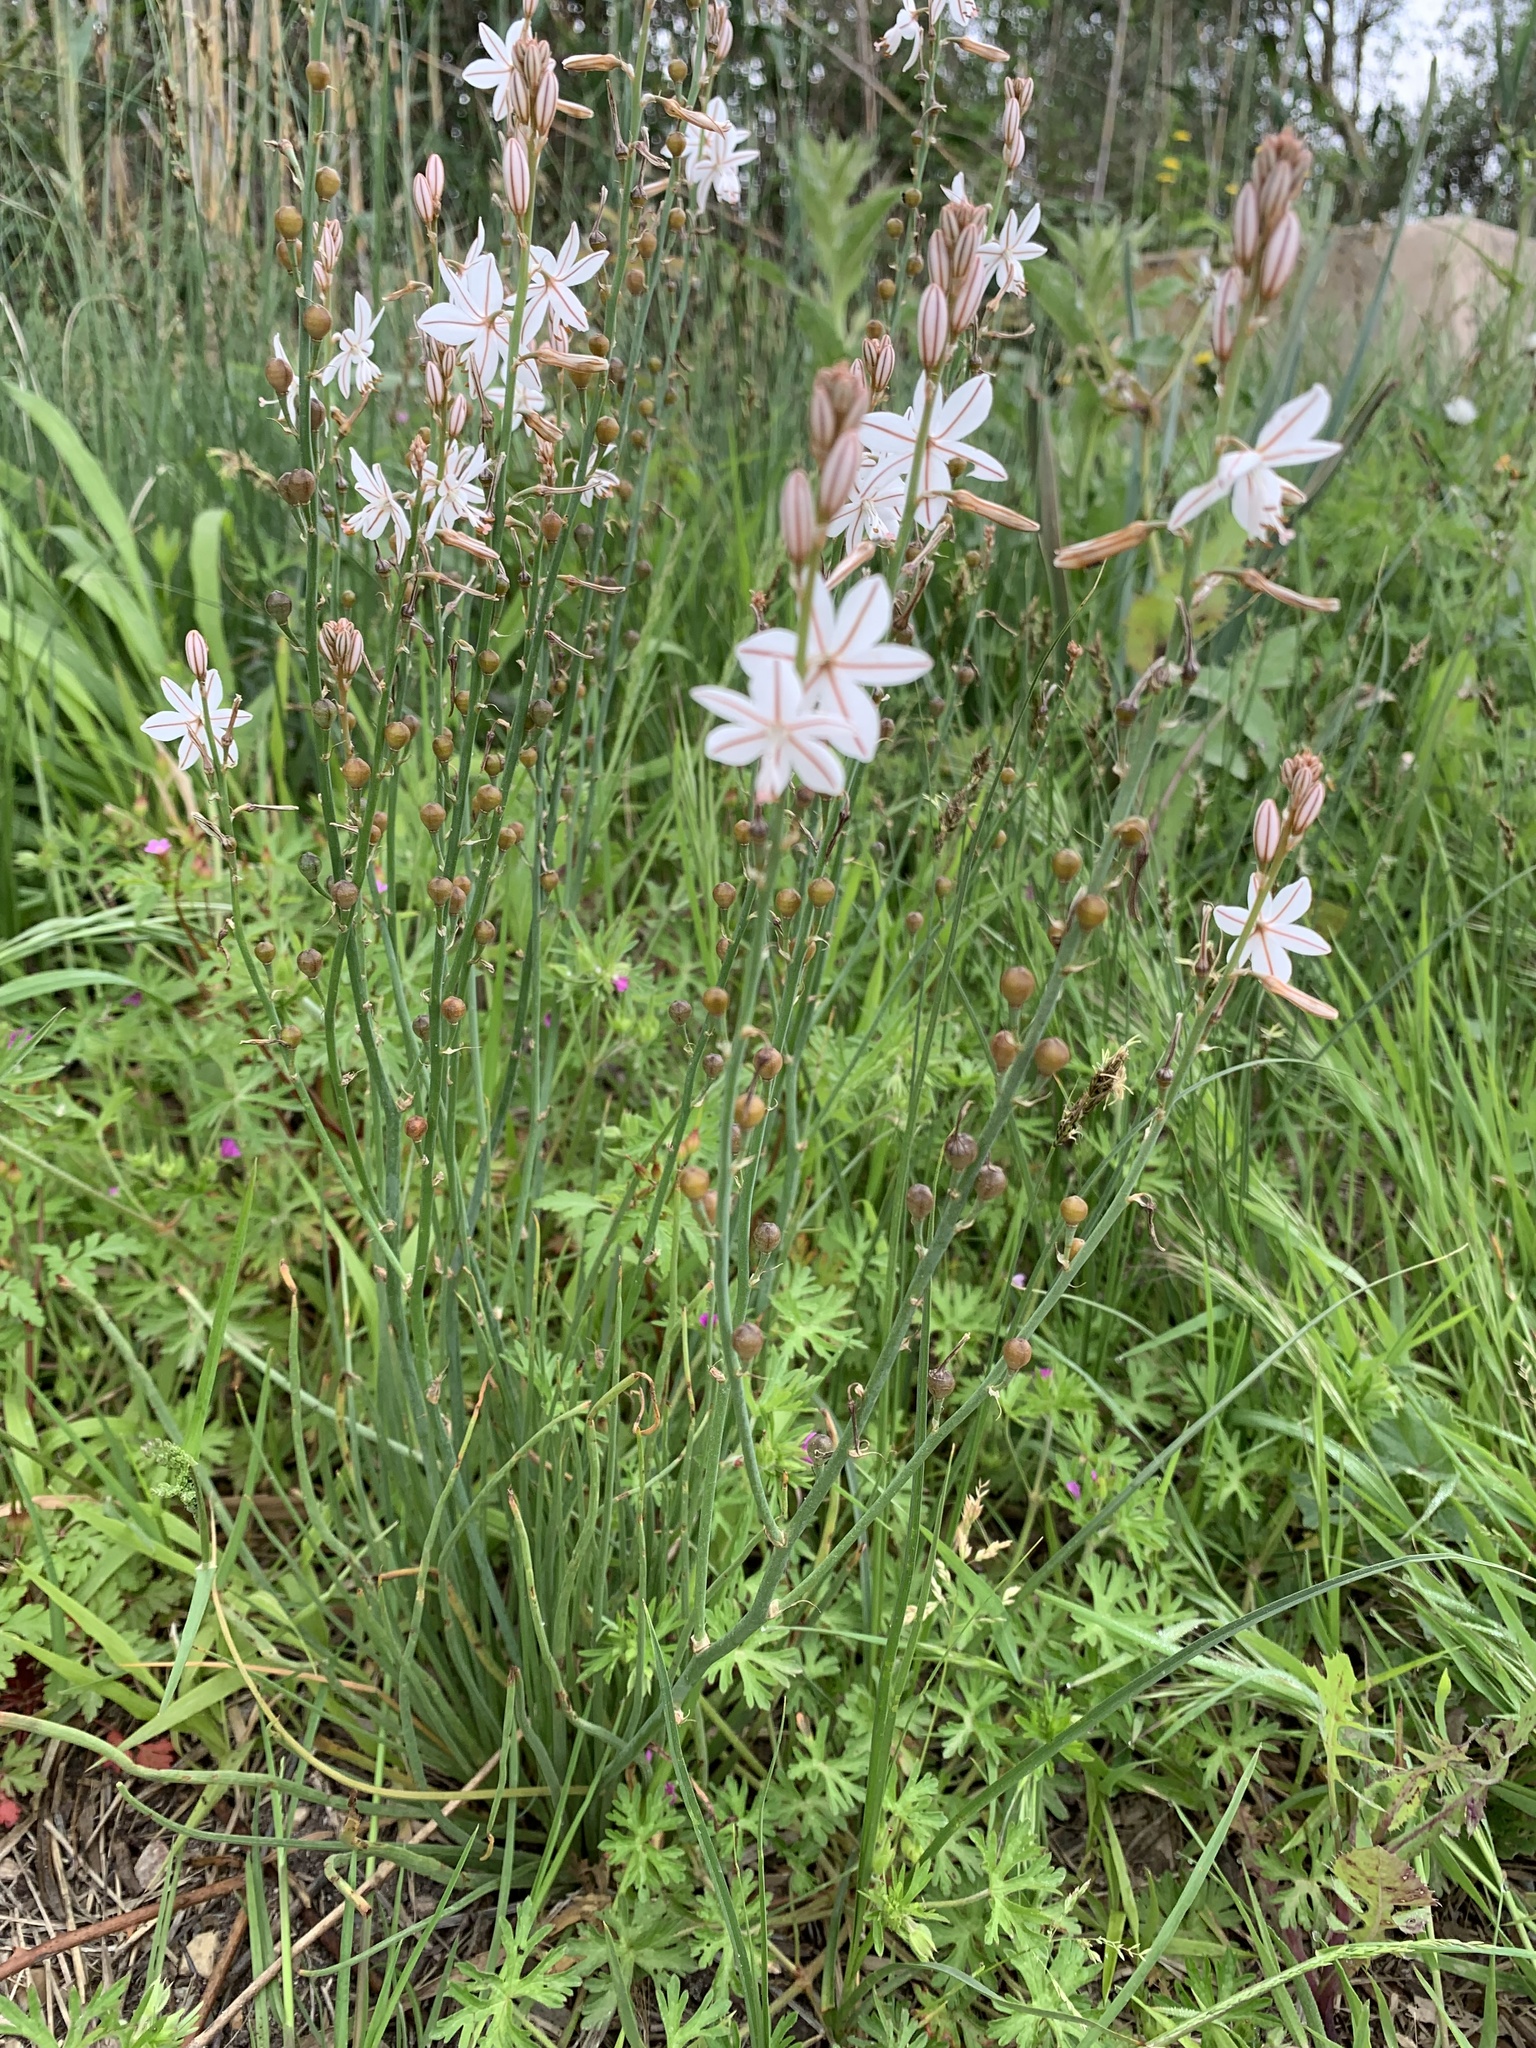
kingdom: Plantae
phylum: Tracheophyta
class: Liliopsida
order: Asparagales
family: Asphodelaceae
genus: Asphodelus
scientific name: Asphodelus fistulosus
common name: Onionweed
